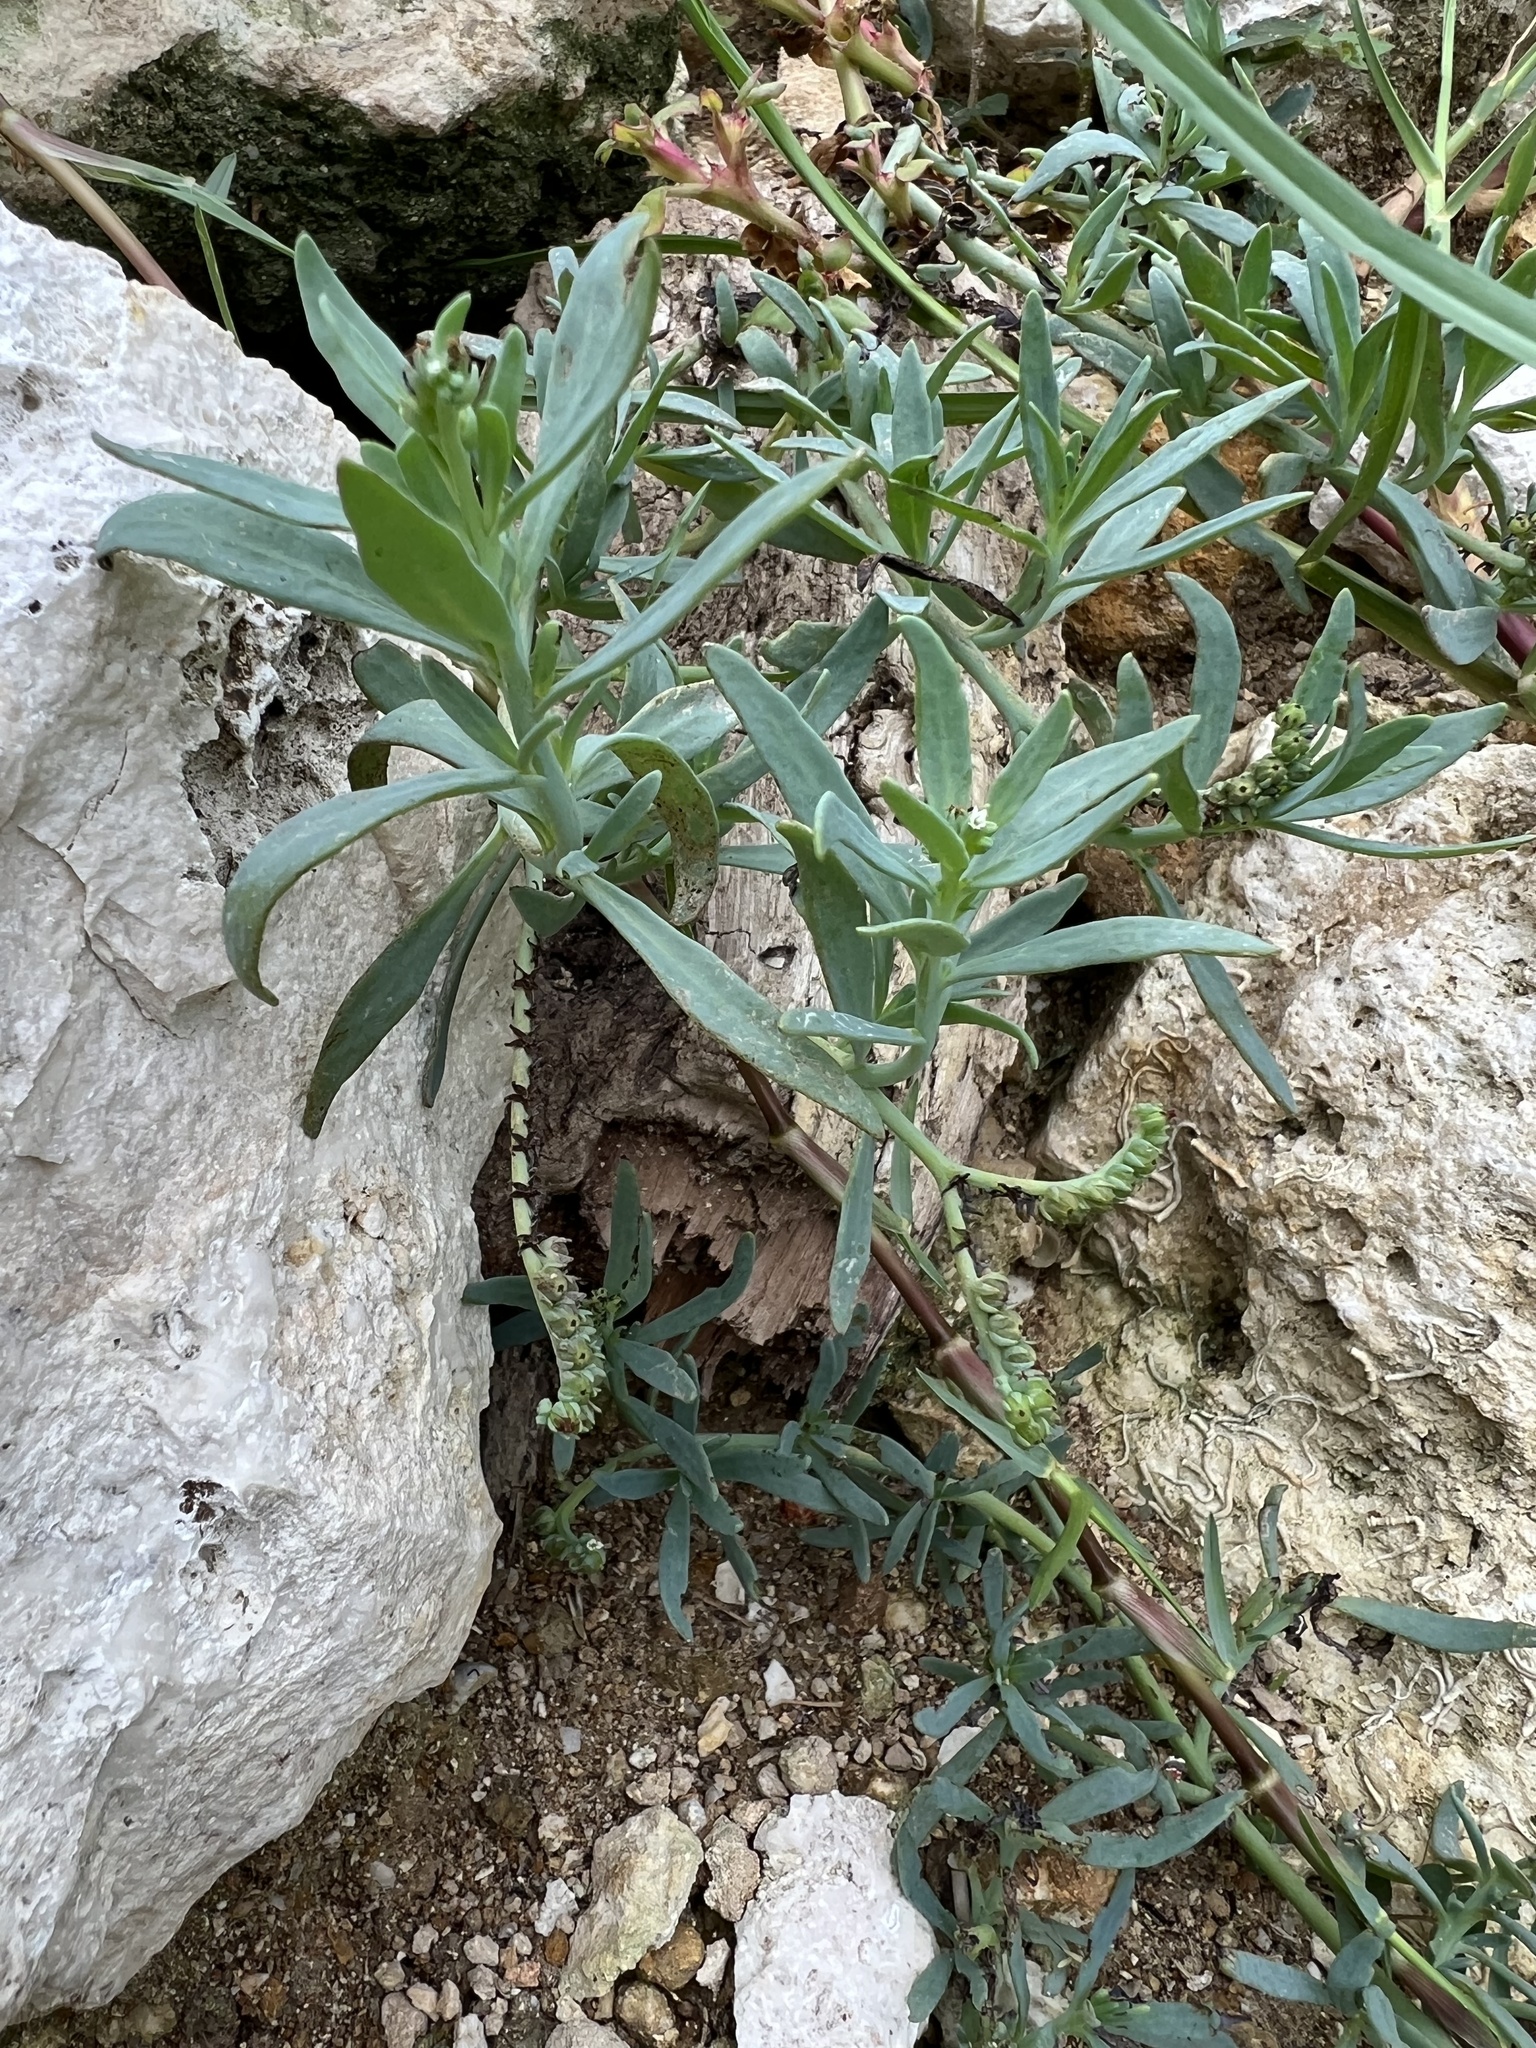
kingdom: Plantae
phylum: Tracheophyta
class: Magnoliopsida
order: Boraginales
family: Heliotropiaceae
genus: Heliotropium
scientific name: Heliotropium curassavicum
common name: Seaside heliotrope
